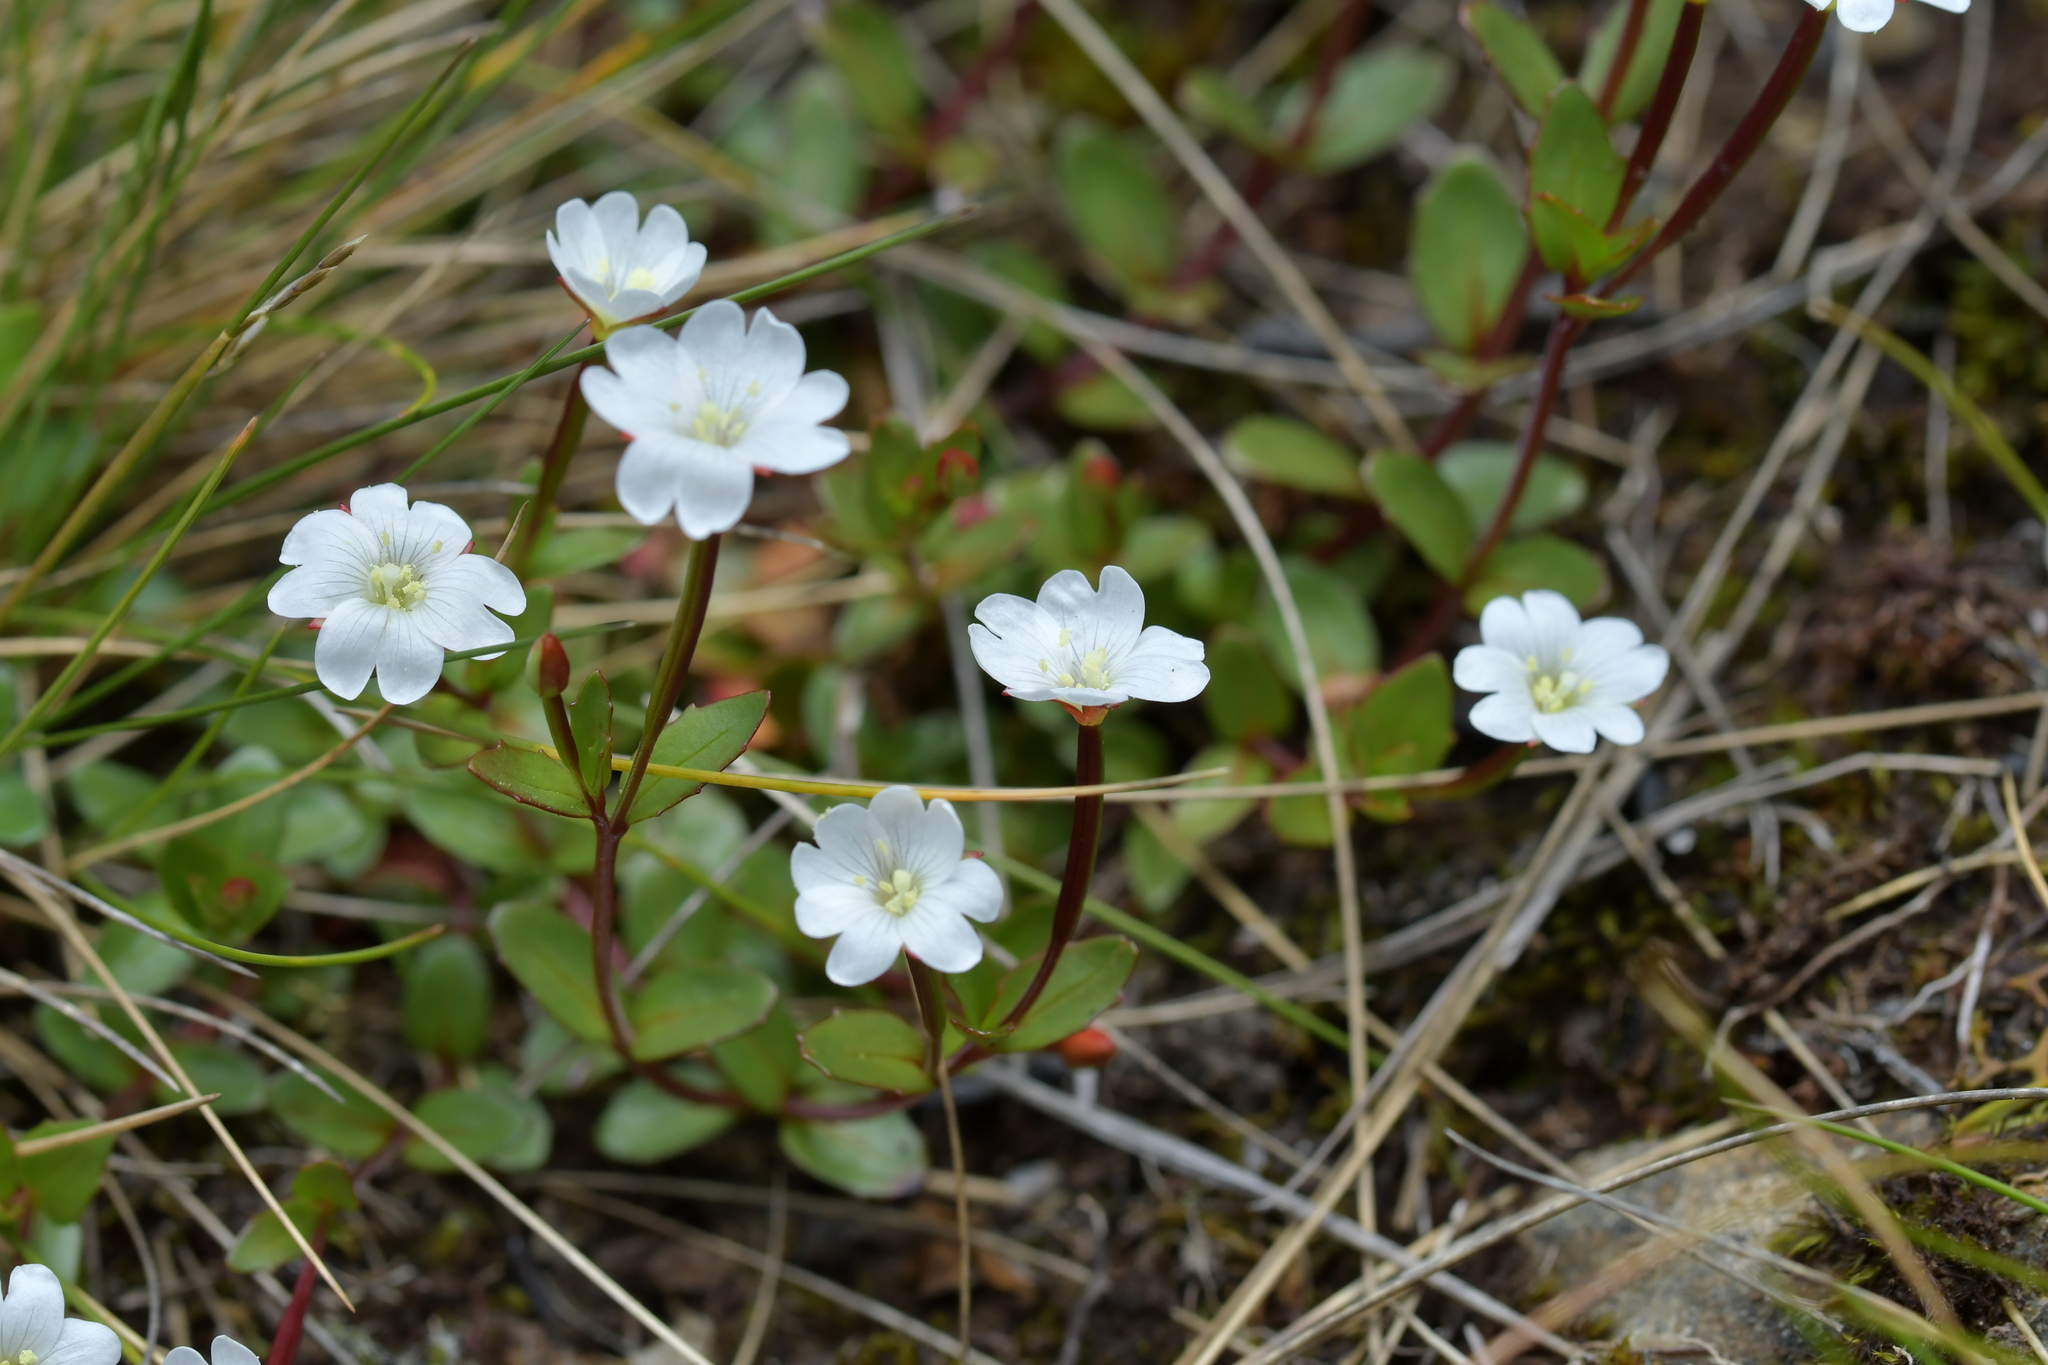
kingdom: Plantae
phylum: Tracheophyta
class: Magnoliopsida
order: Myrtales
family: Onagraceae
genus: Epilobium
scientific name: Epilobium alsinoides
